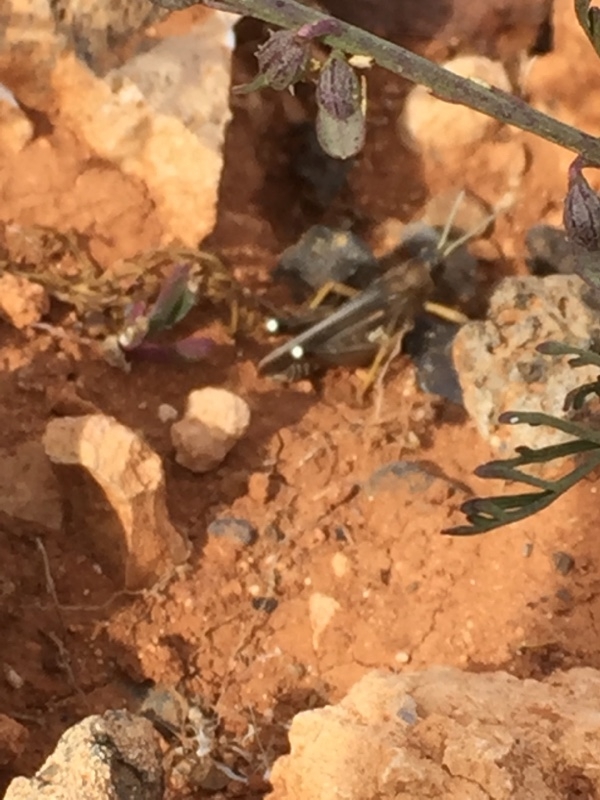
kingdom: Animalia
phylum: Arthropoda
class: Insecta
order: Orthoptera
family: Dericorythidae
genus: Dericorys
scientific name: Dericorys lobata
